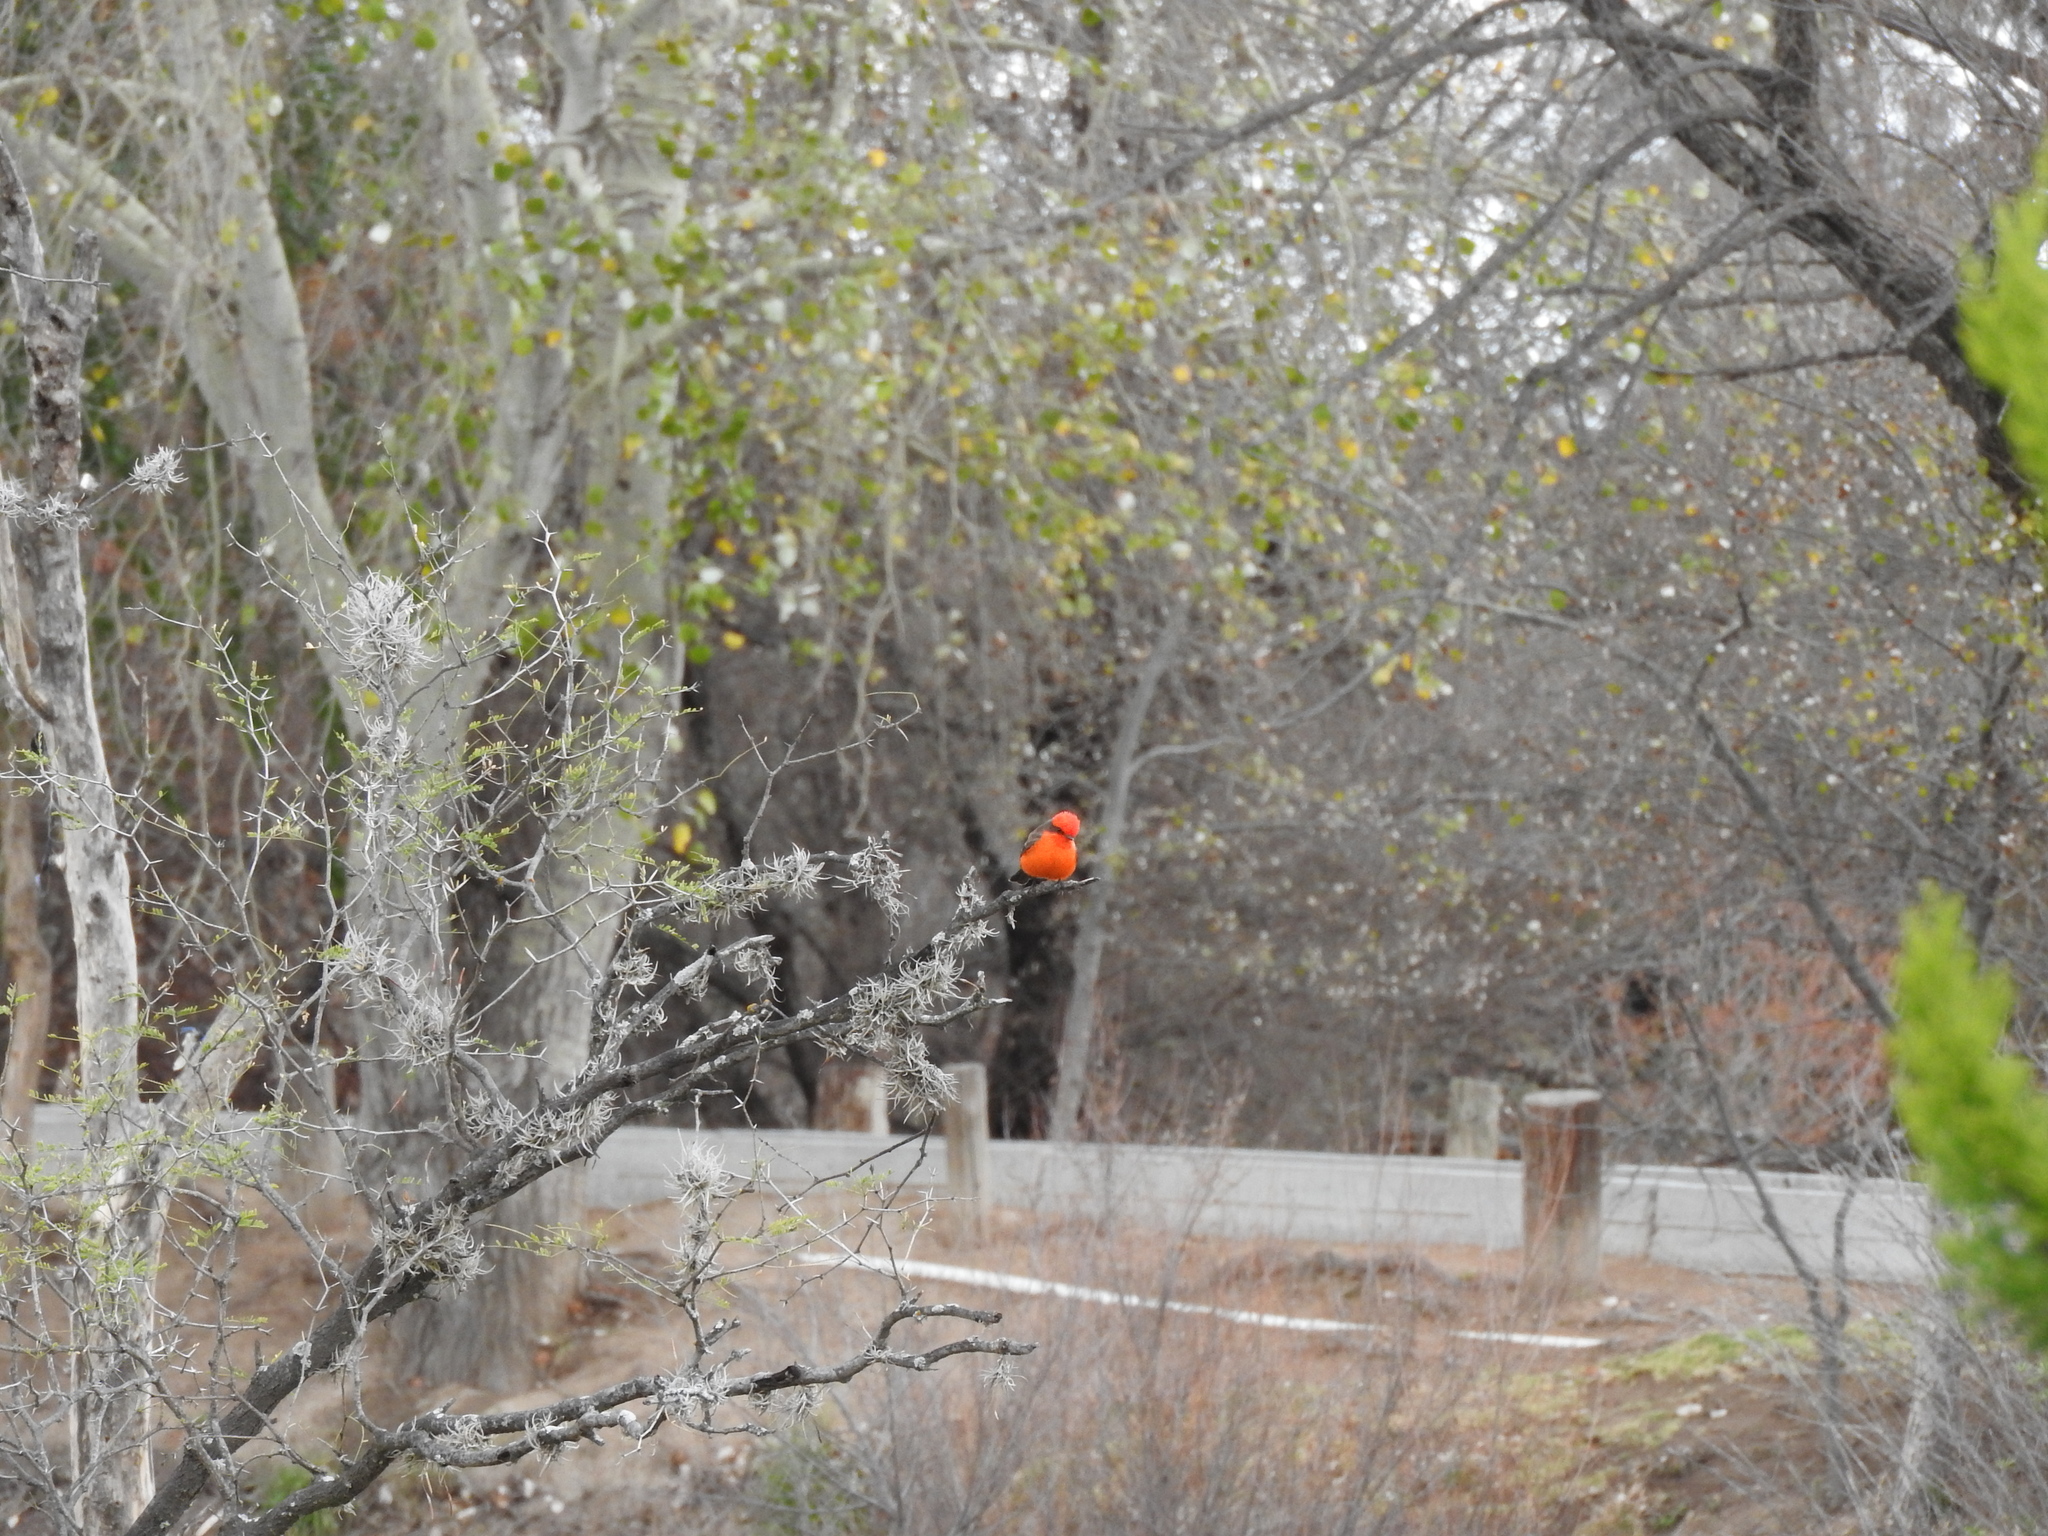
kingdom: Animalia
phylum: Chordata
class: Aves
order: Passeriformes
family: Tyrannidae
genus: Pyrocephalus
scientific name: Pyrocephalus rubinus
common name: Vermilion flycatcher
